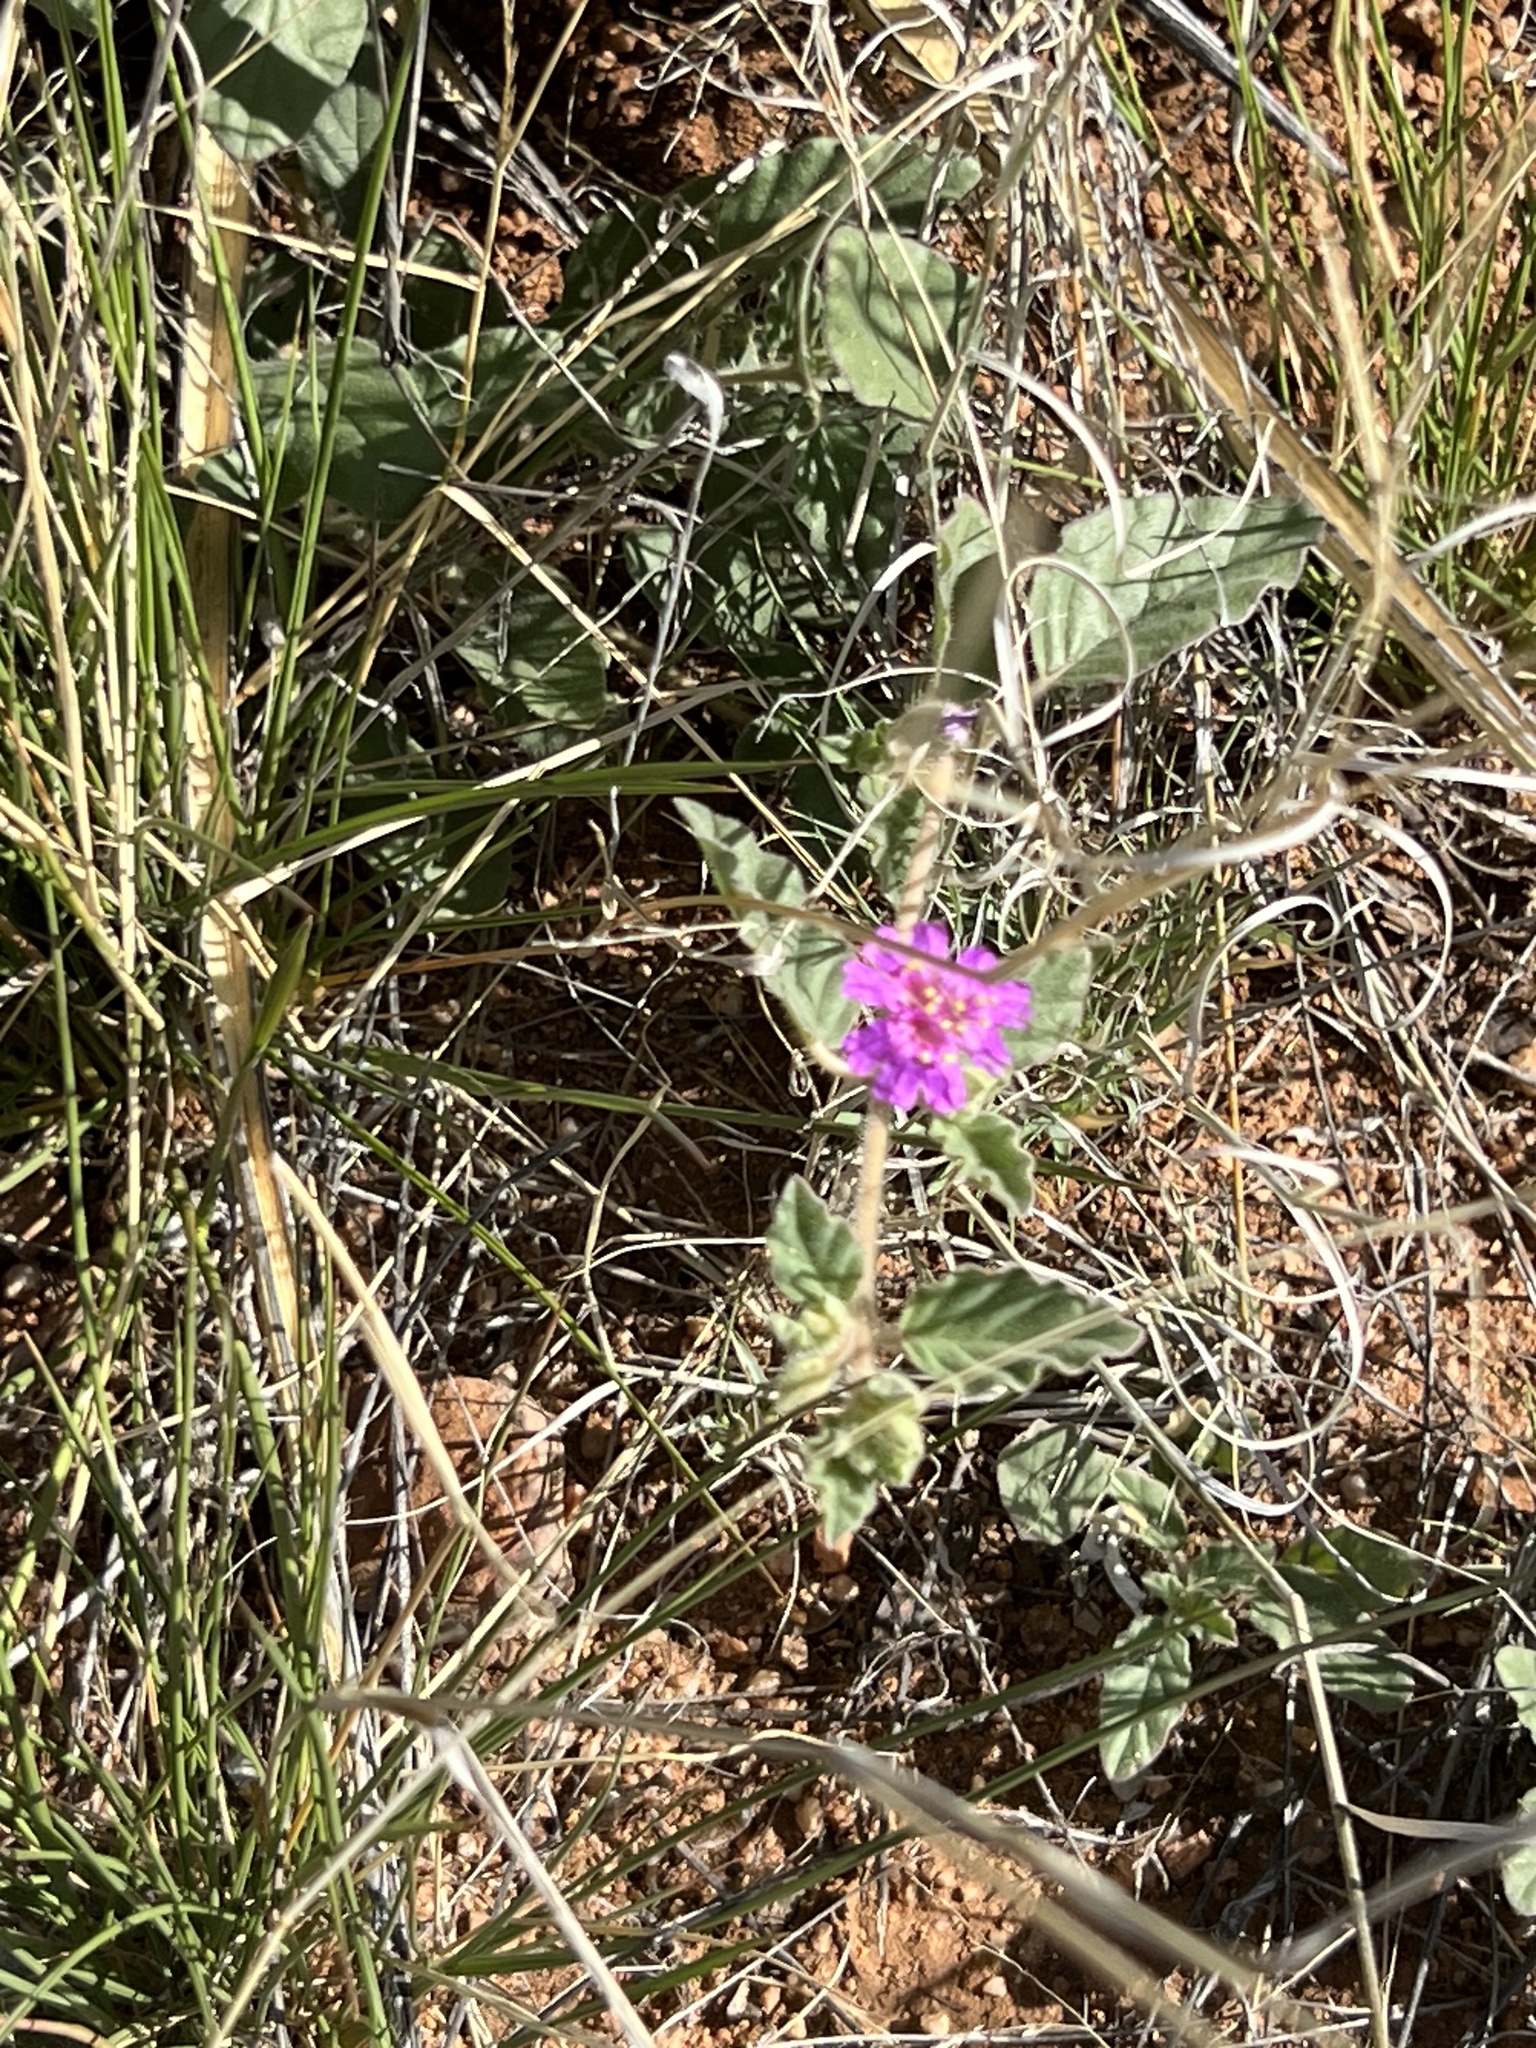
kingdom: Plantae
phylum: Tracheophyta
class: Magnoliopsida
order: Caryophyllales
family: Nyctaginaceae
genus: Allionia
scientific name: Allionia incarnata
